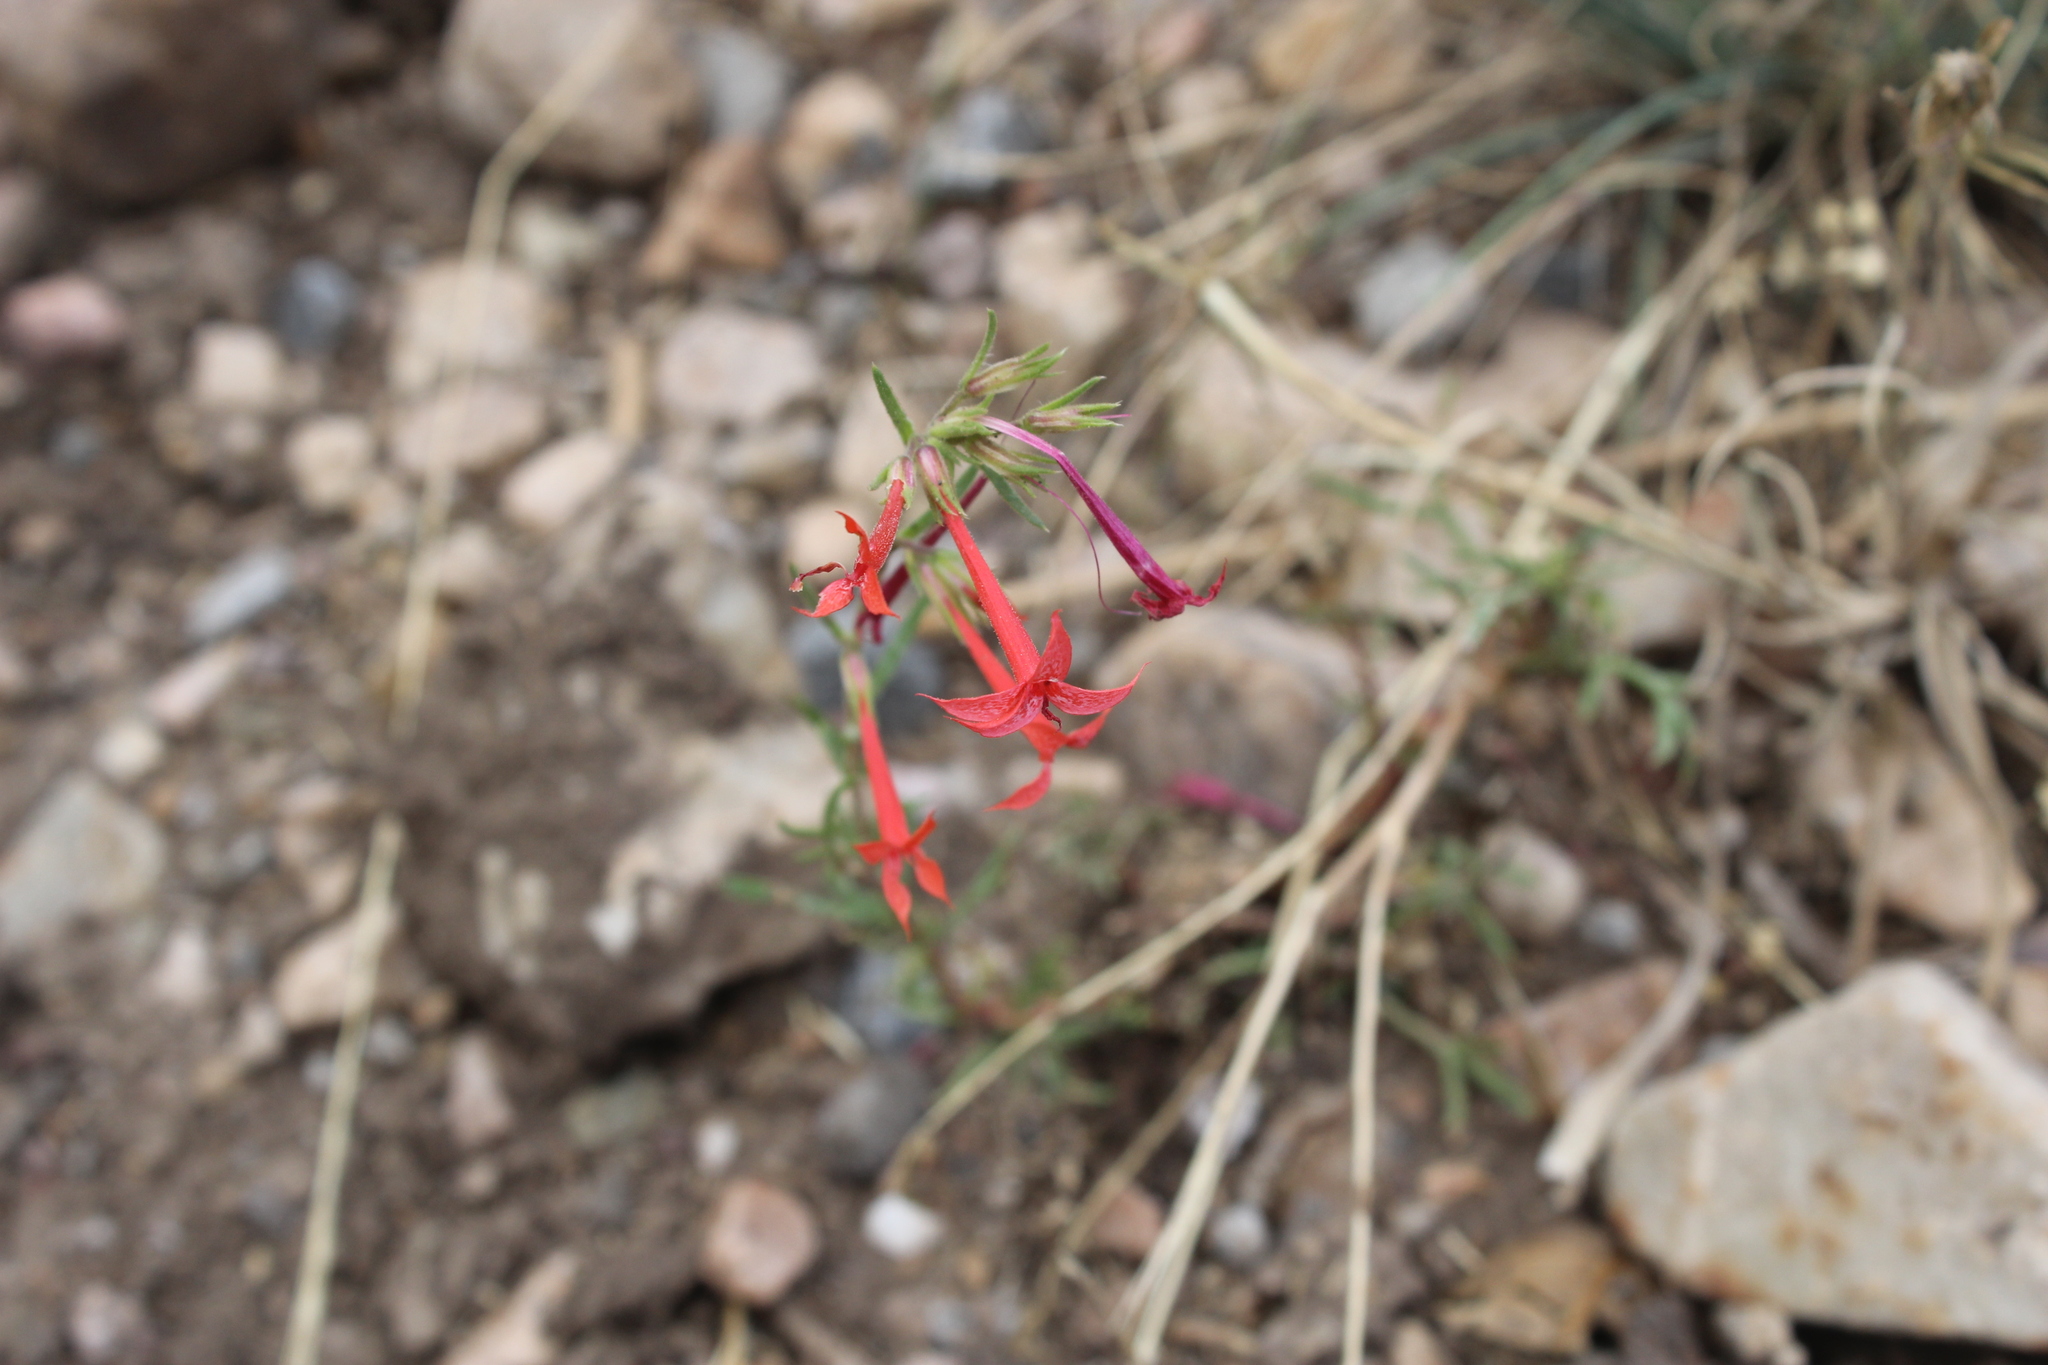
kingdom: Plantae
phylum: Tracheophyta
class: Magnoliopsida
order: Ericales
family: Polemoniaceae
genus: Ipomopsis
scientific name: Ipomopsis aggregata
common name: Scarlet gilia
